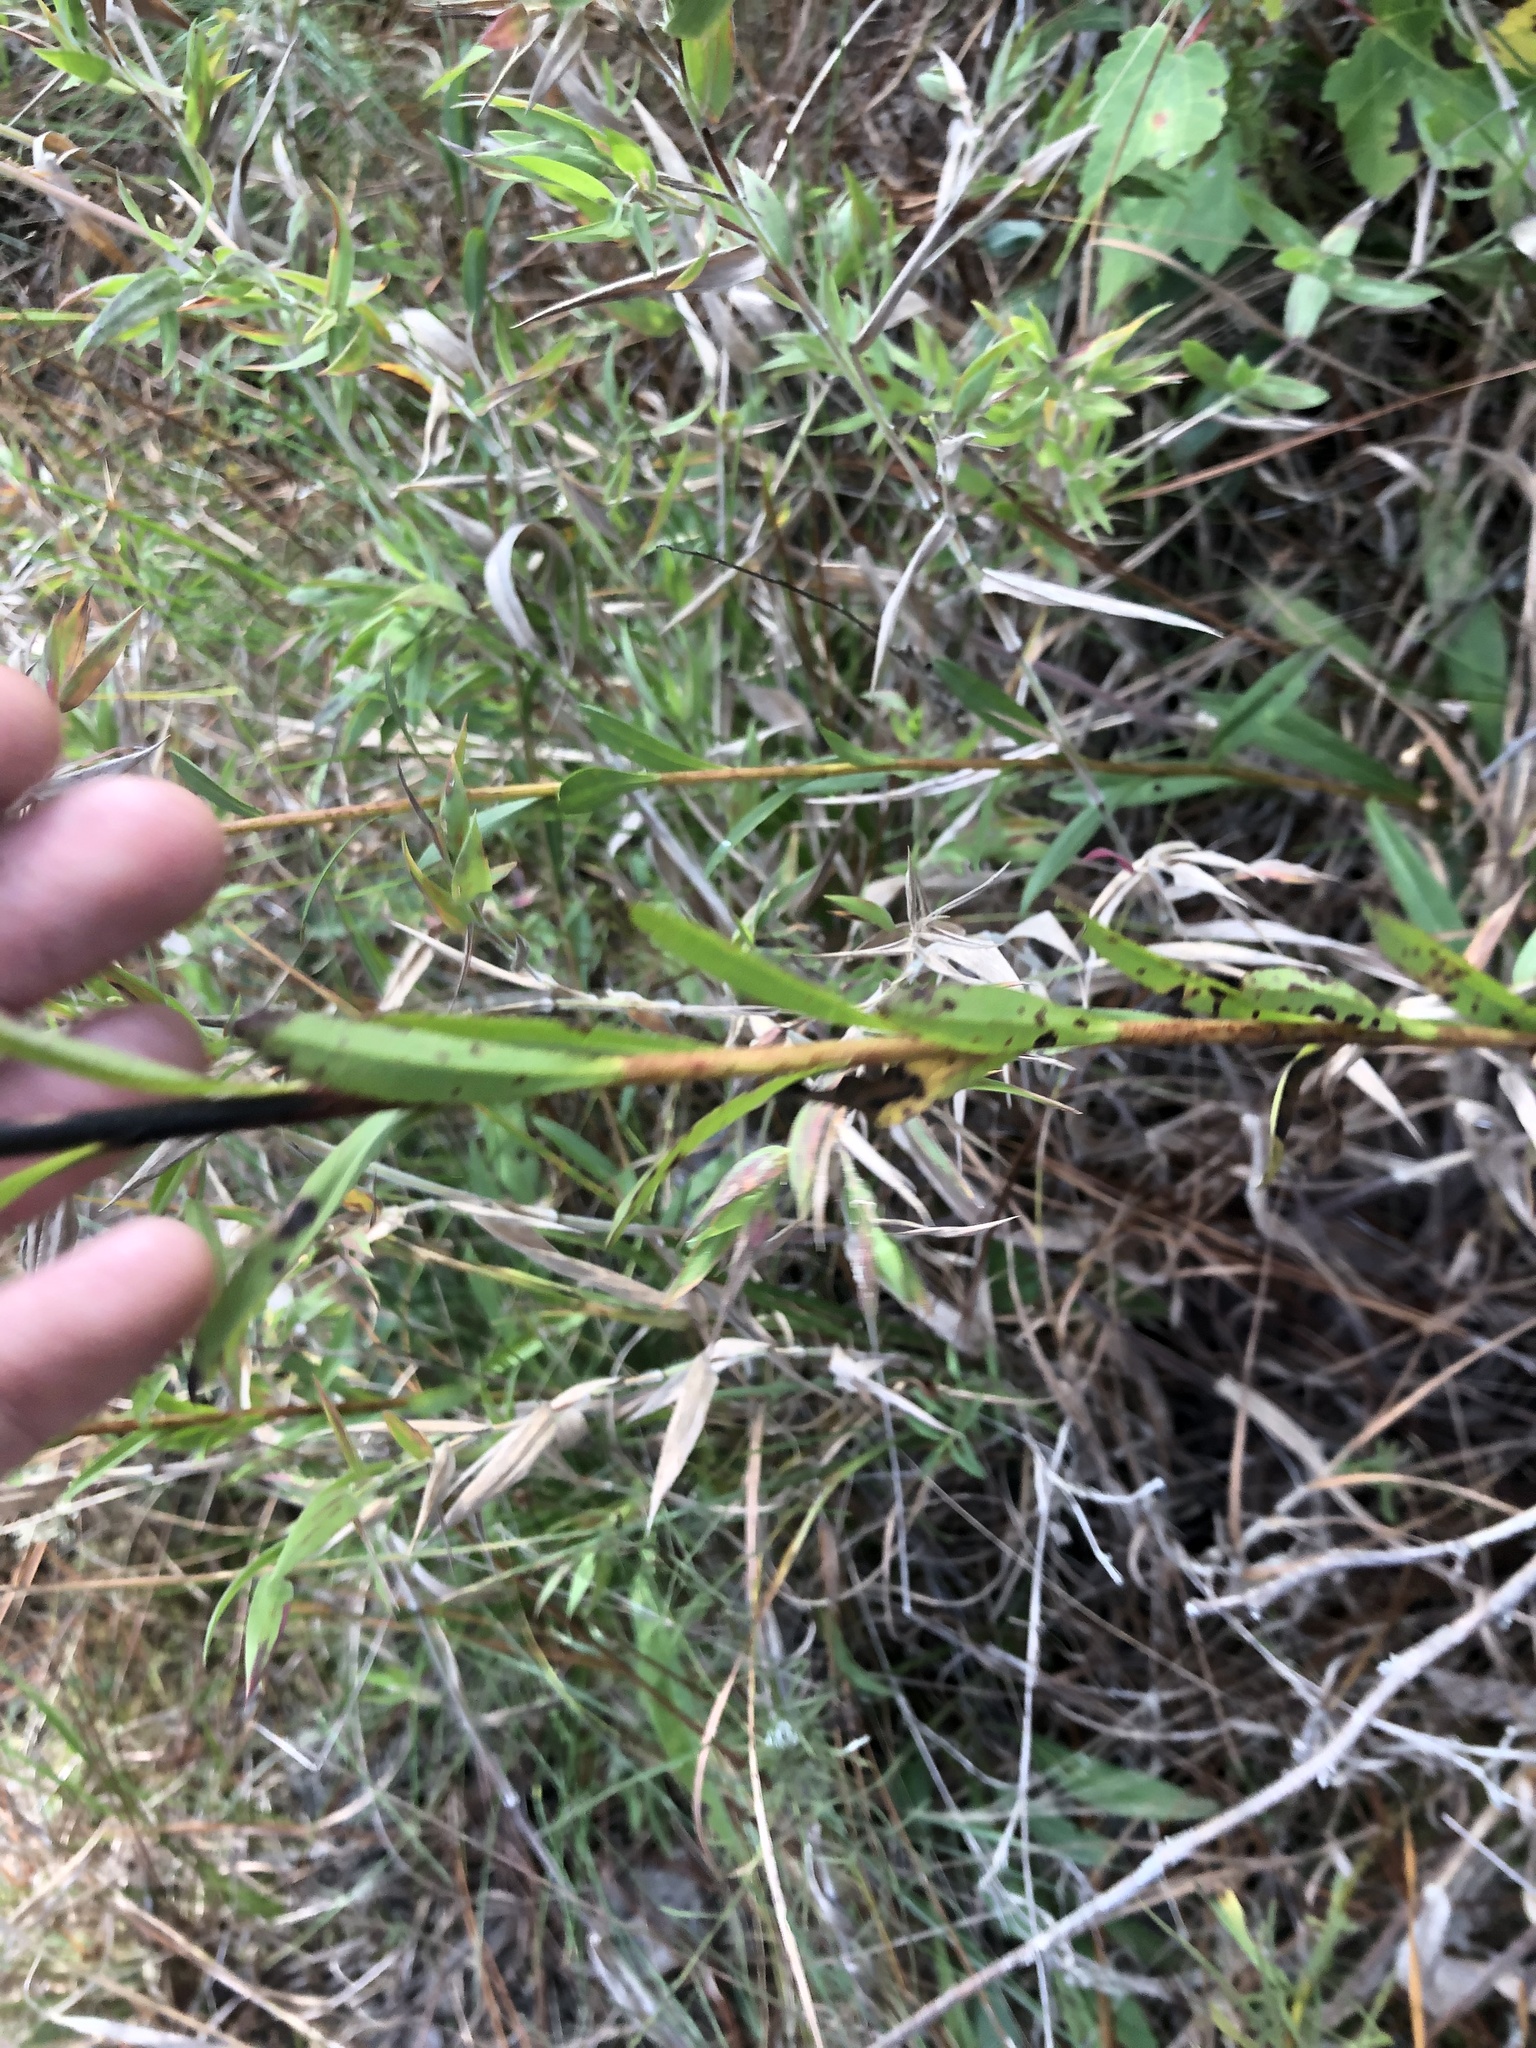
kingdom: Plantae
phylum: Tracheophyta
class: Magnoliopsida
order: Asterales
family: Asteraceae
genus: Solidago
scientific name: Solidago virgata
